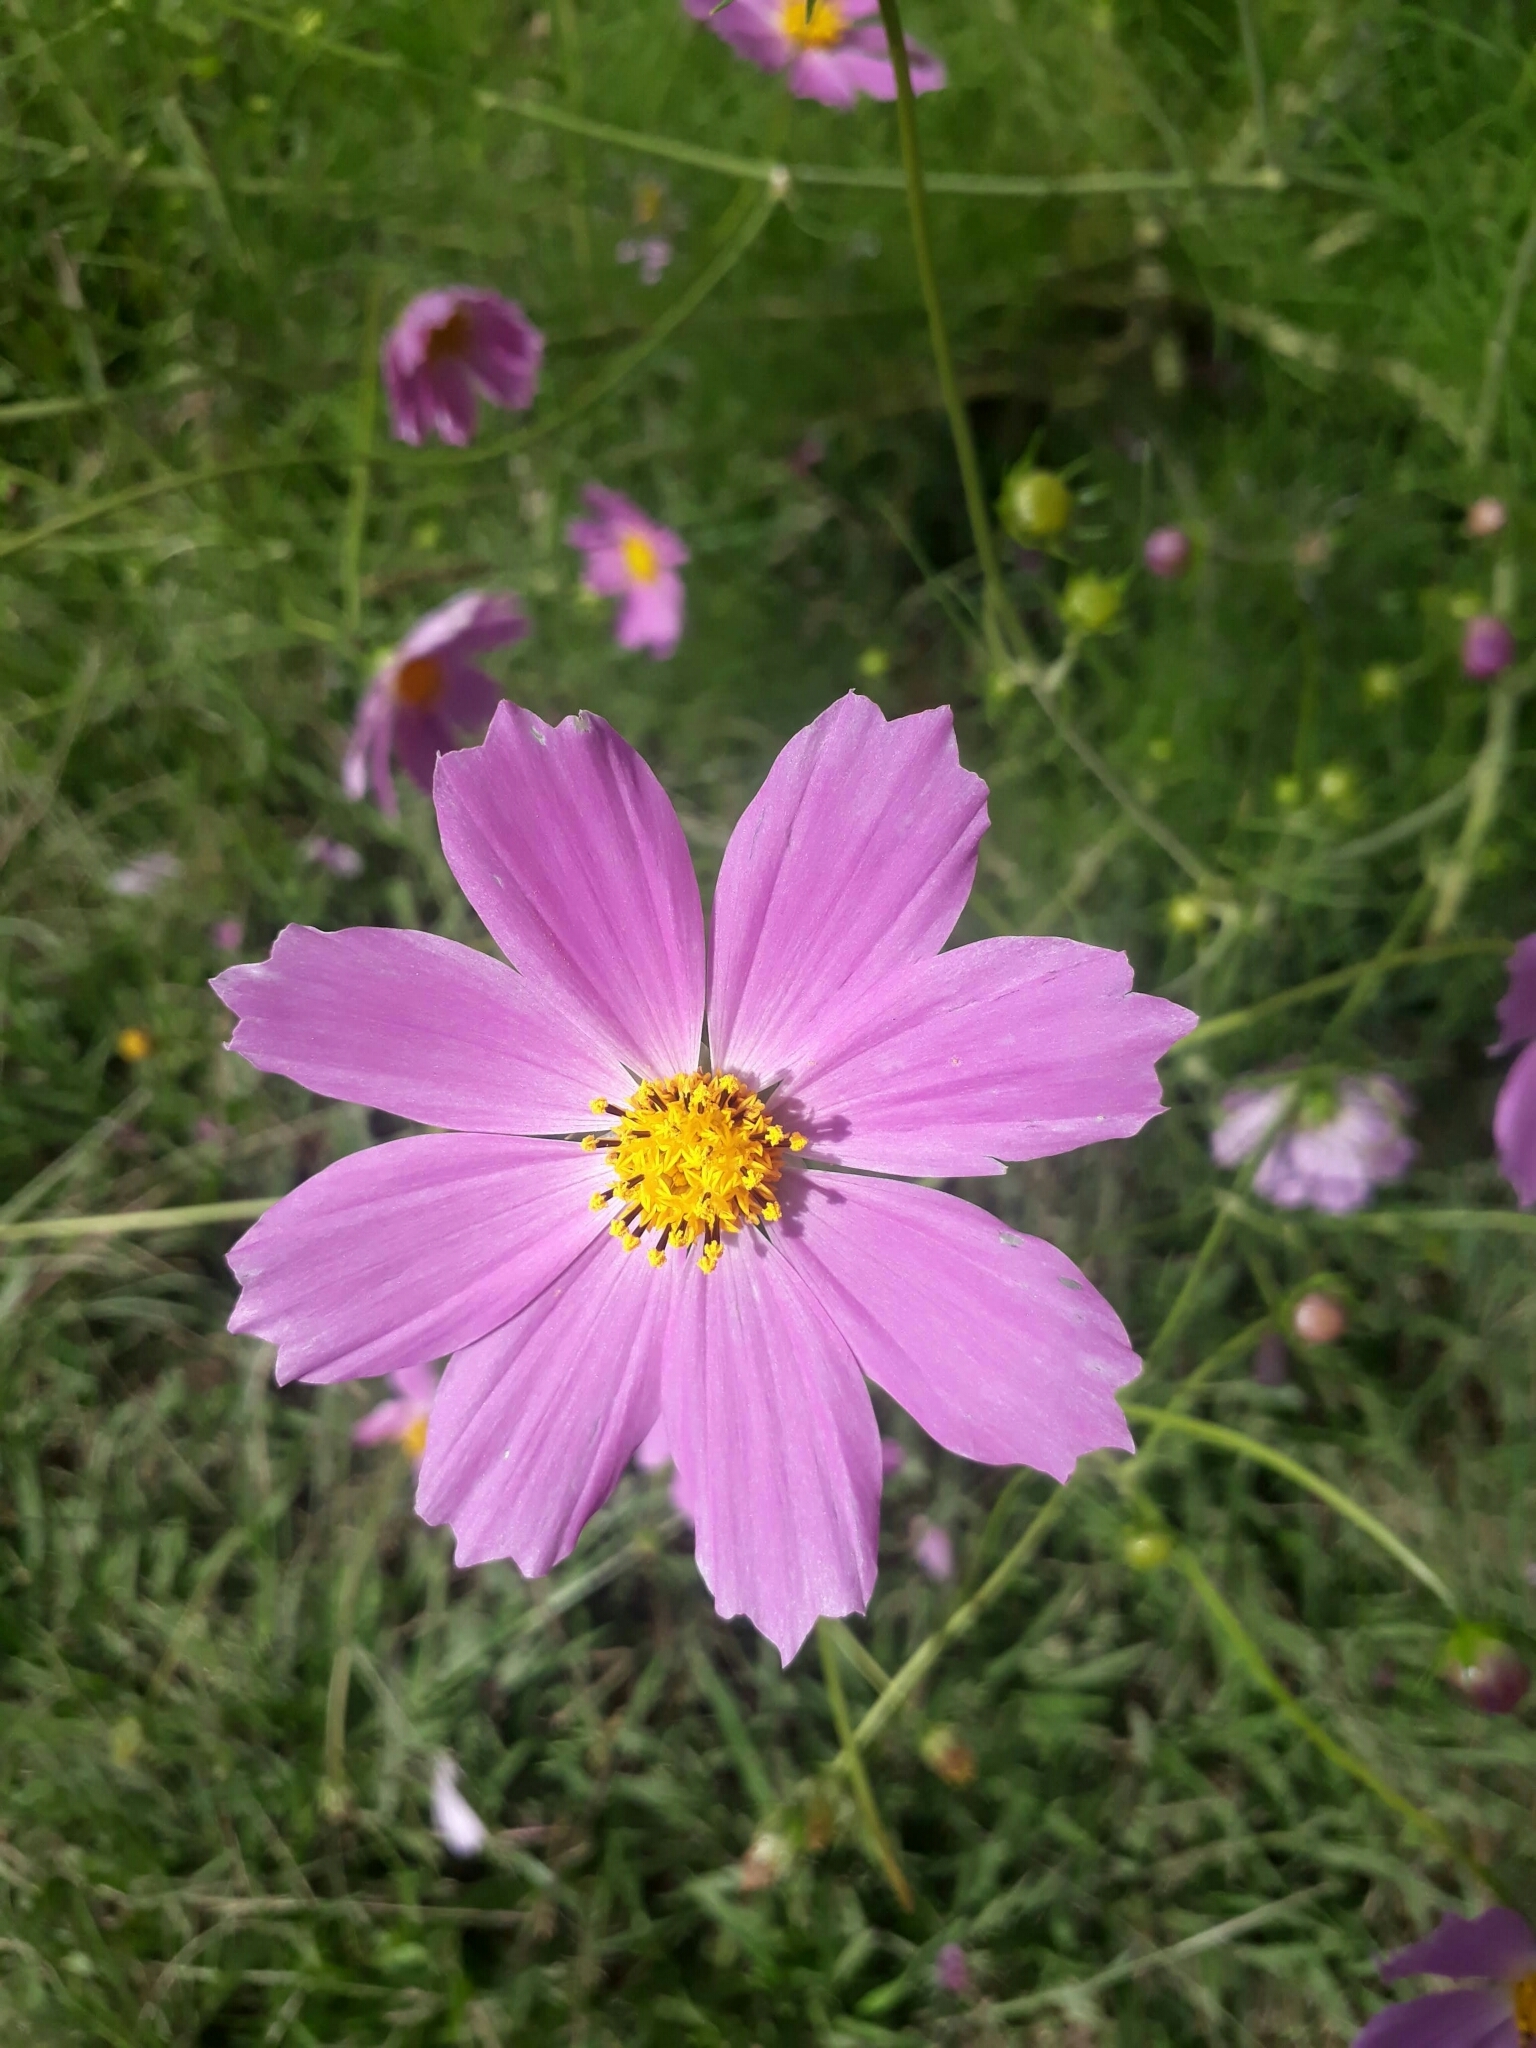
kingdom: Plantae
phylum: Tracheophyta
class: Magnoliopsida
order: Asterales
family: Asteraceae
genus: Cosmos
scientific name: Cosmos bipinnatus
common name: Garden cosmos
